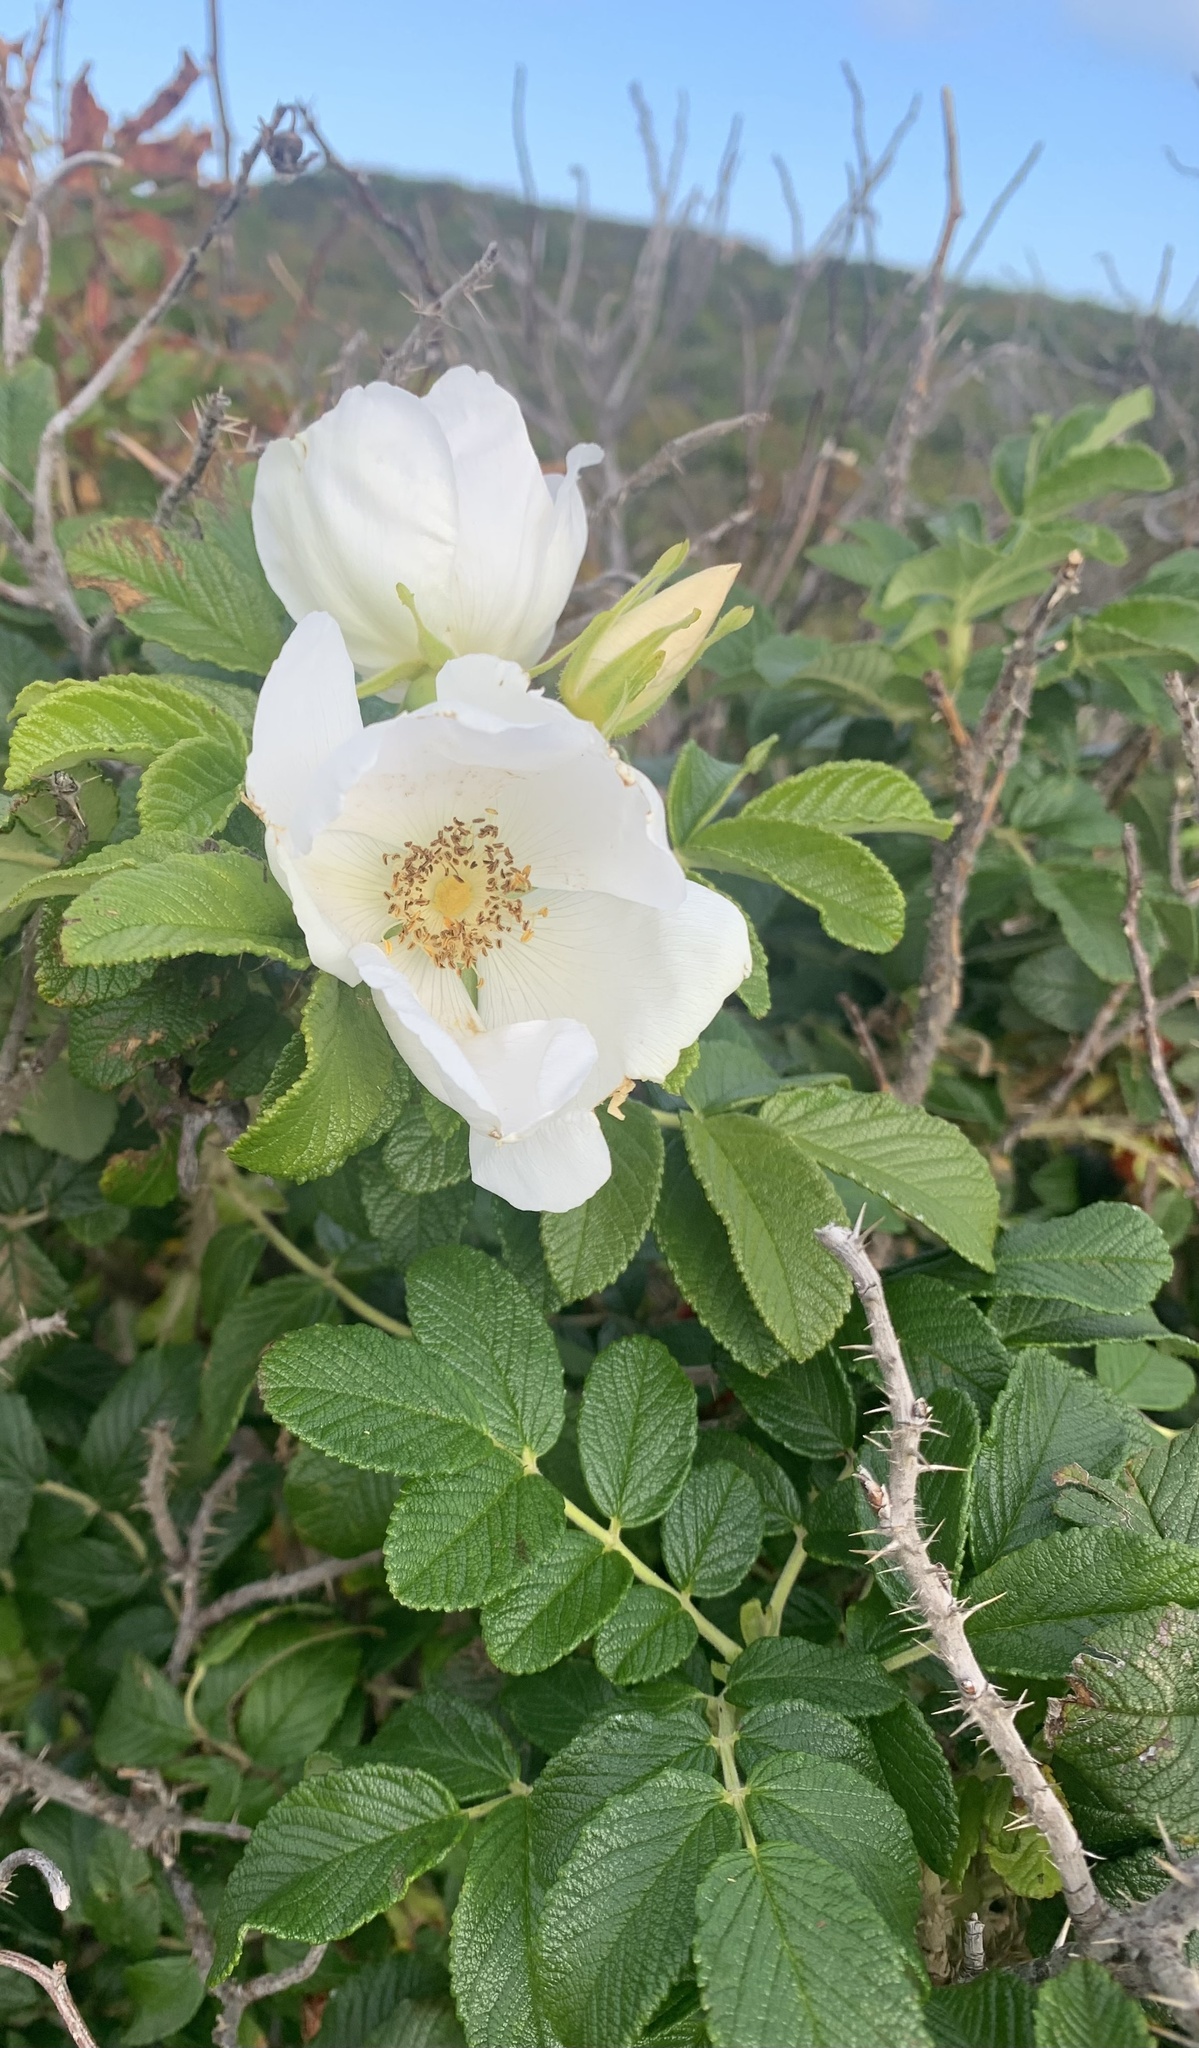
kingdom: Plantae
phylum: Tracheophyta
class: Magnoliopsida
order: Rosales
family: Rosaceae
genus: Rosa
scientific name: Rosa rugosa
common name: Japanese rose
